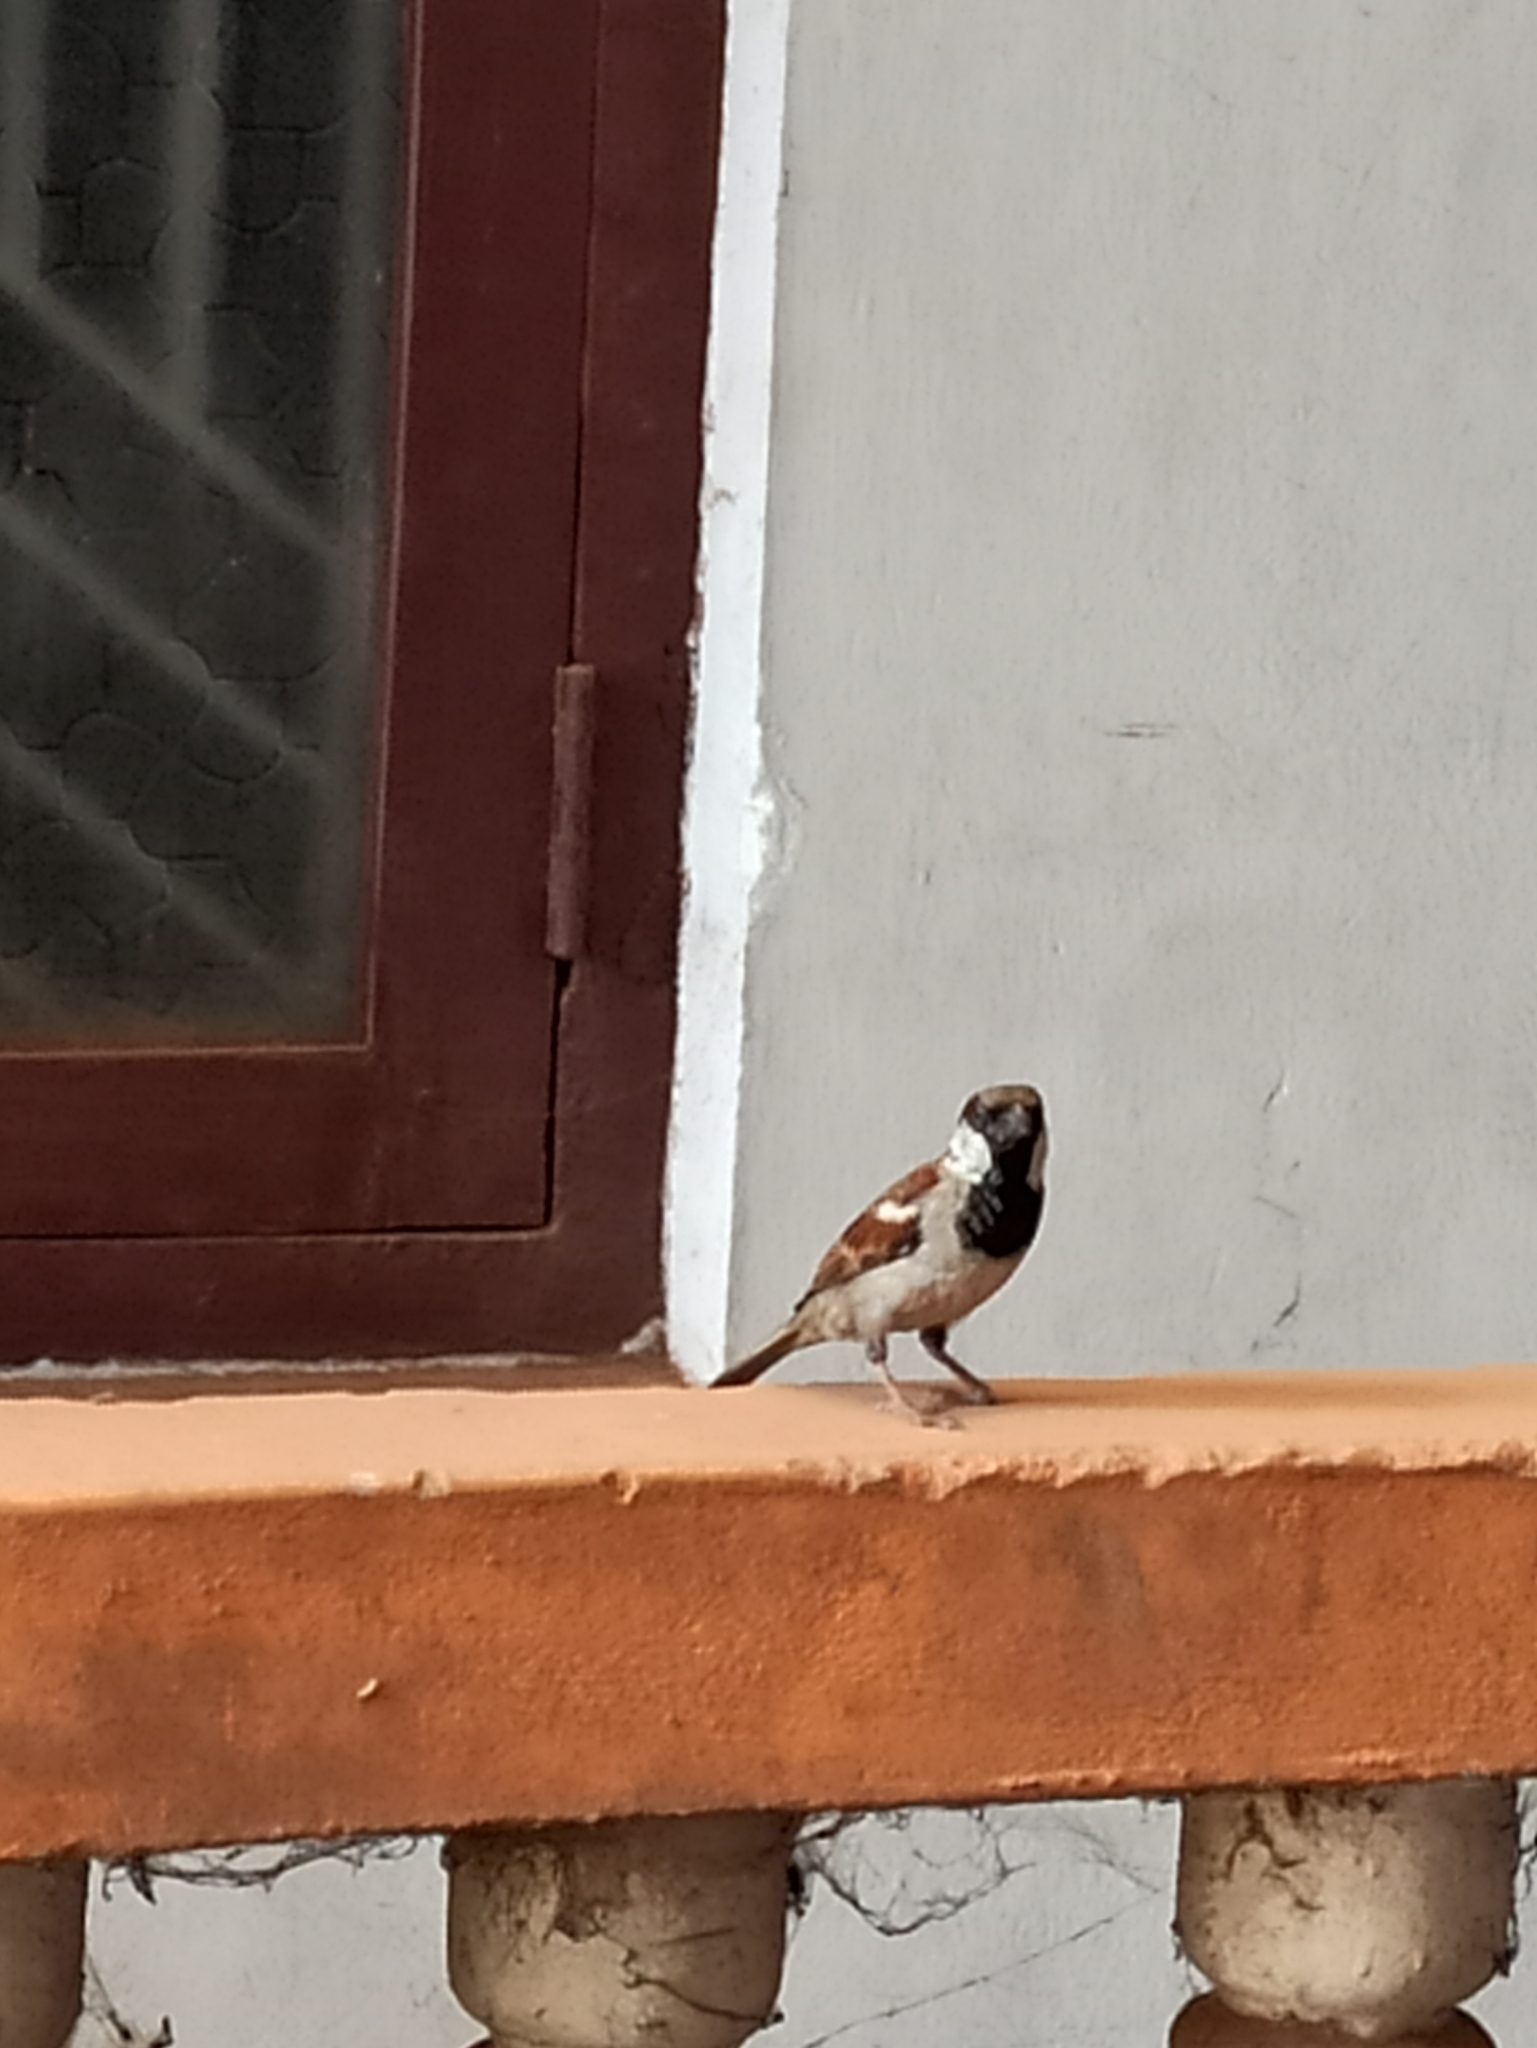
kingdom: Animalia
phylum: Chordata
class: Aves
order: Passeriformes
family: Passeridae
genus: Passer
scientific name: Passer domesticus
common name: House sparrow
